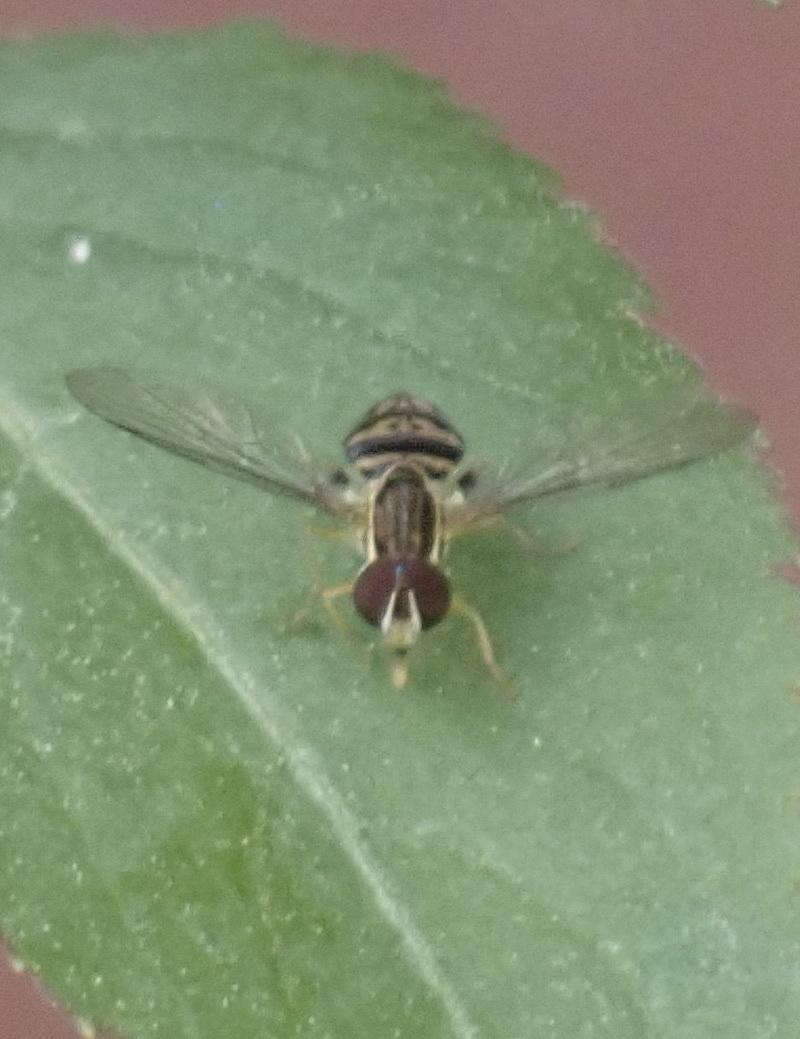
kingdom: Animalia
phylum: Arthropoda
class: Insecta
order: Diptera
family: Syrphidae
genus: Toxomerus
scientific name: Toxomerus geminatus
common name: Eastern calligrapher
